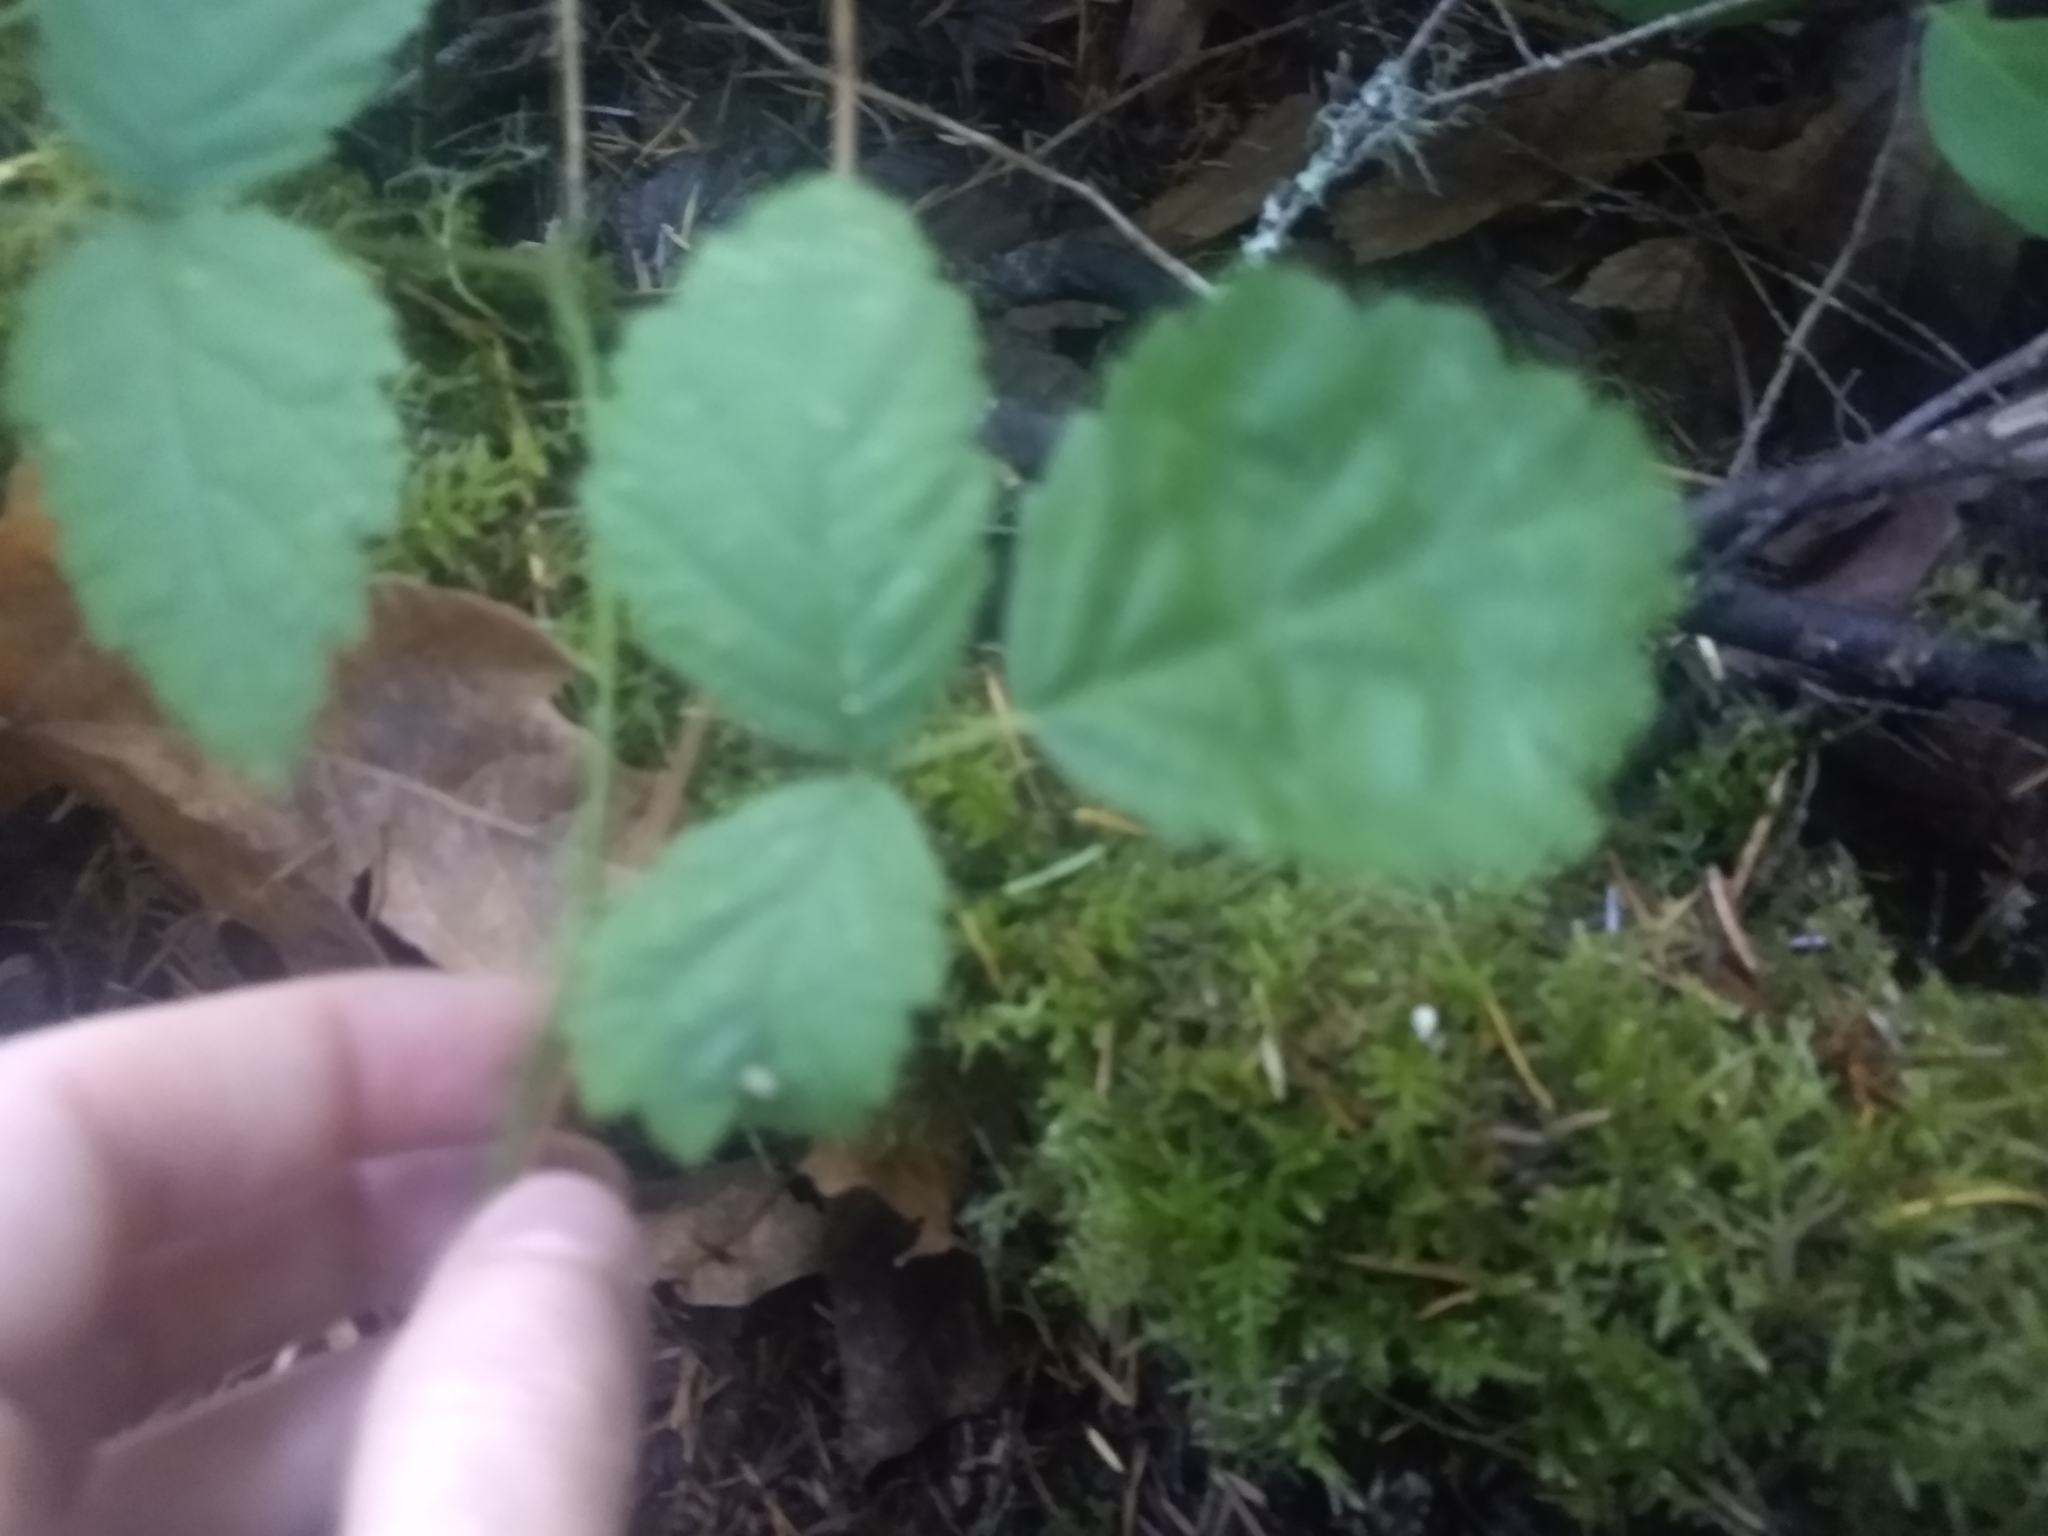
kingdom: Plantae
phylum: Tracheophyta
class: Magnoliopsida
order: Rosales
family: Rosaceae
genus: Rubus
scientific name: Rubus ursinus
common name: Pacific blackberry
